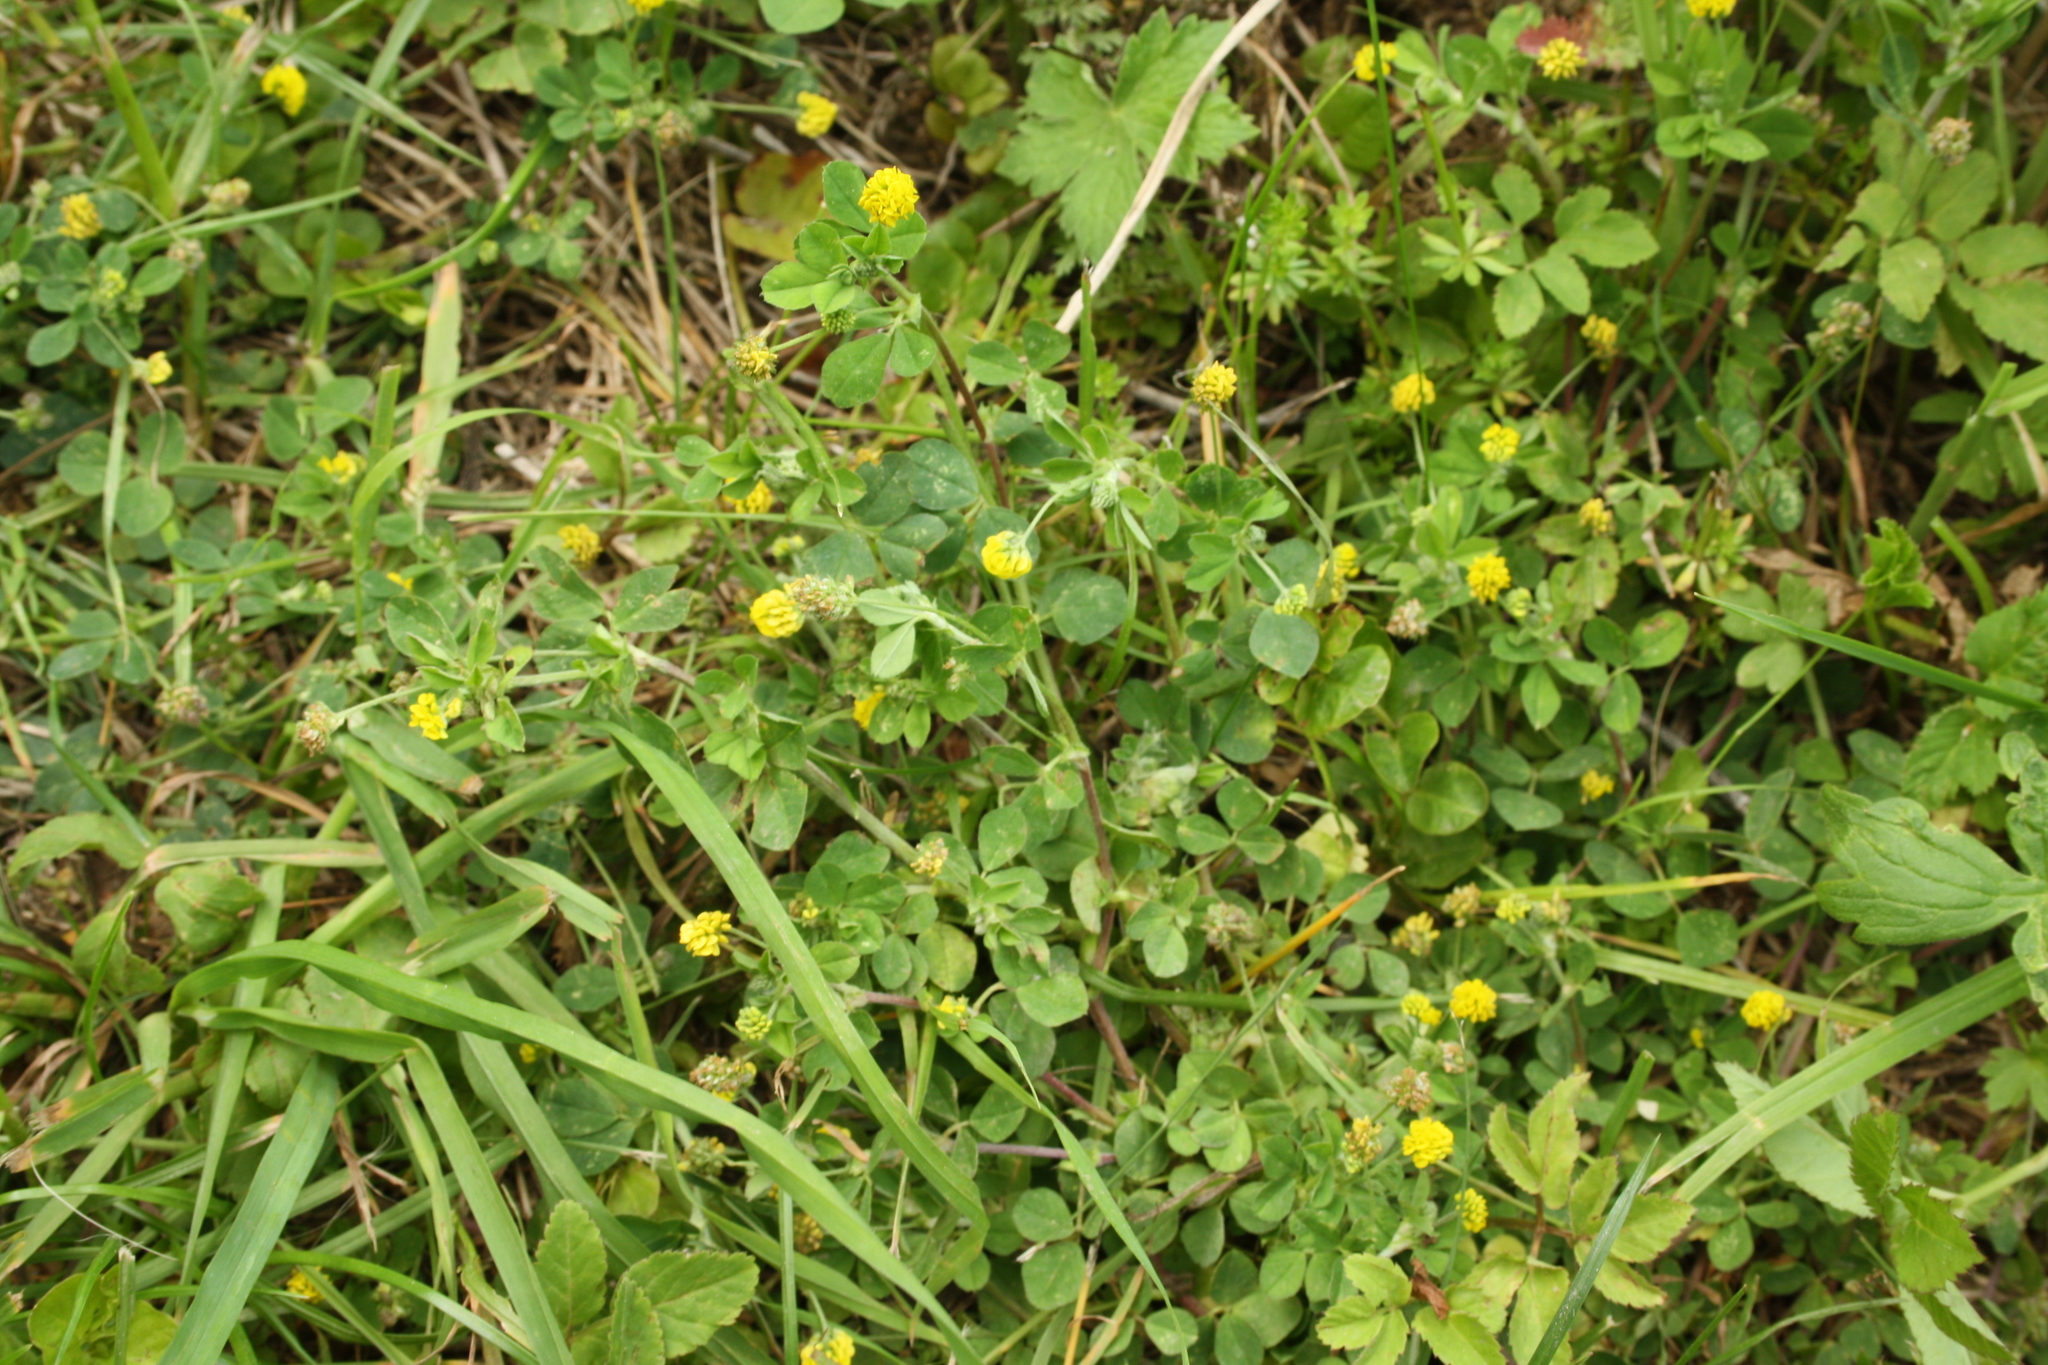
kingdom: Plantae
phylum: Tracheophyta
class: Magnoliopsida
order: Fabales
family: Fabaceae
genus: Medicago
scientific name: Medicago lupulina
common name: Black medick
